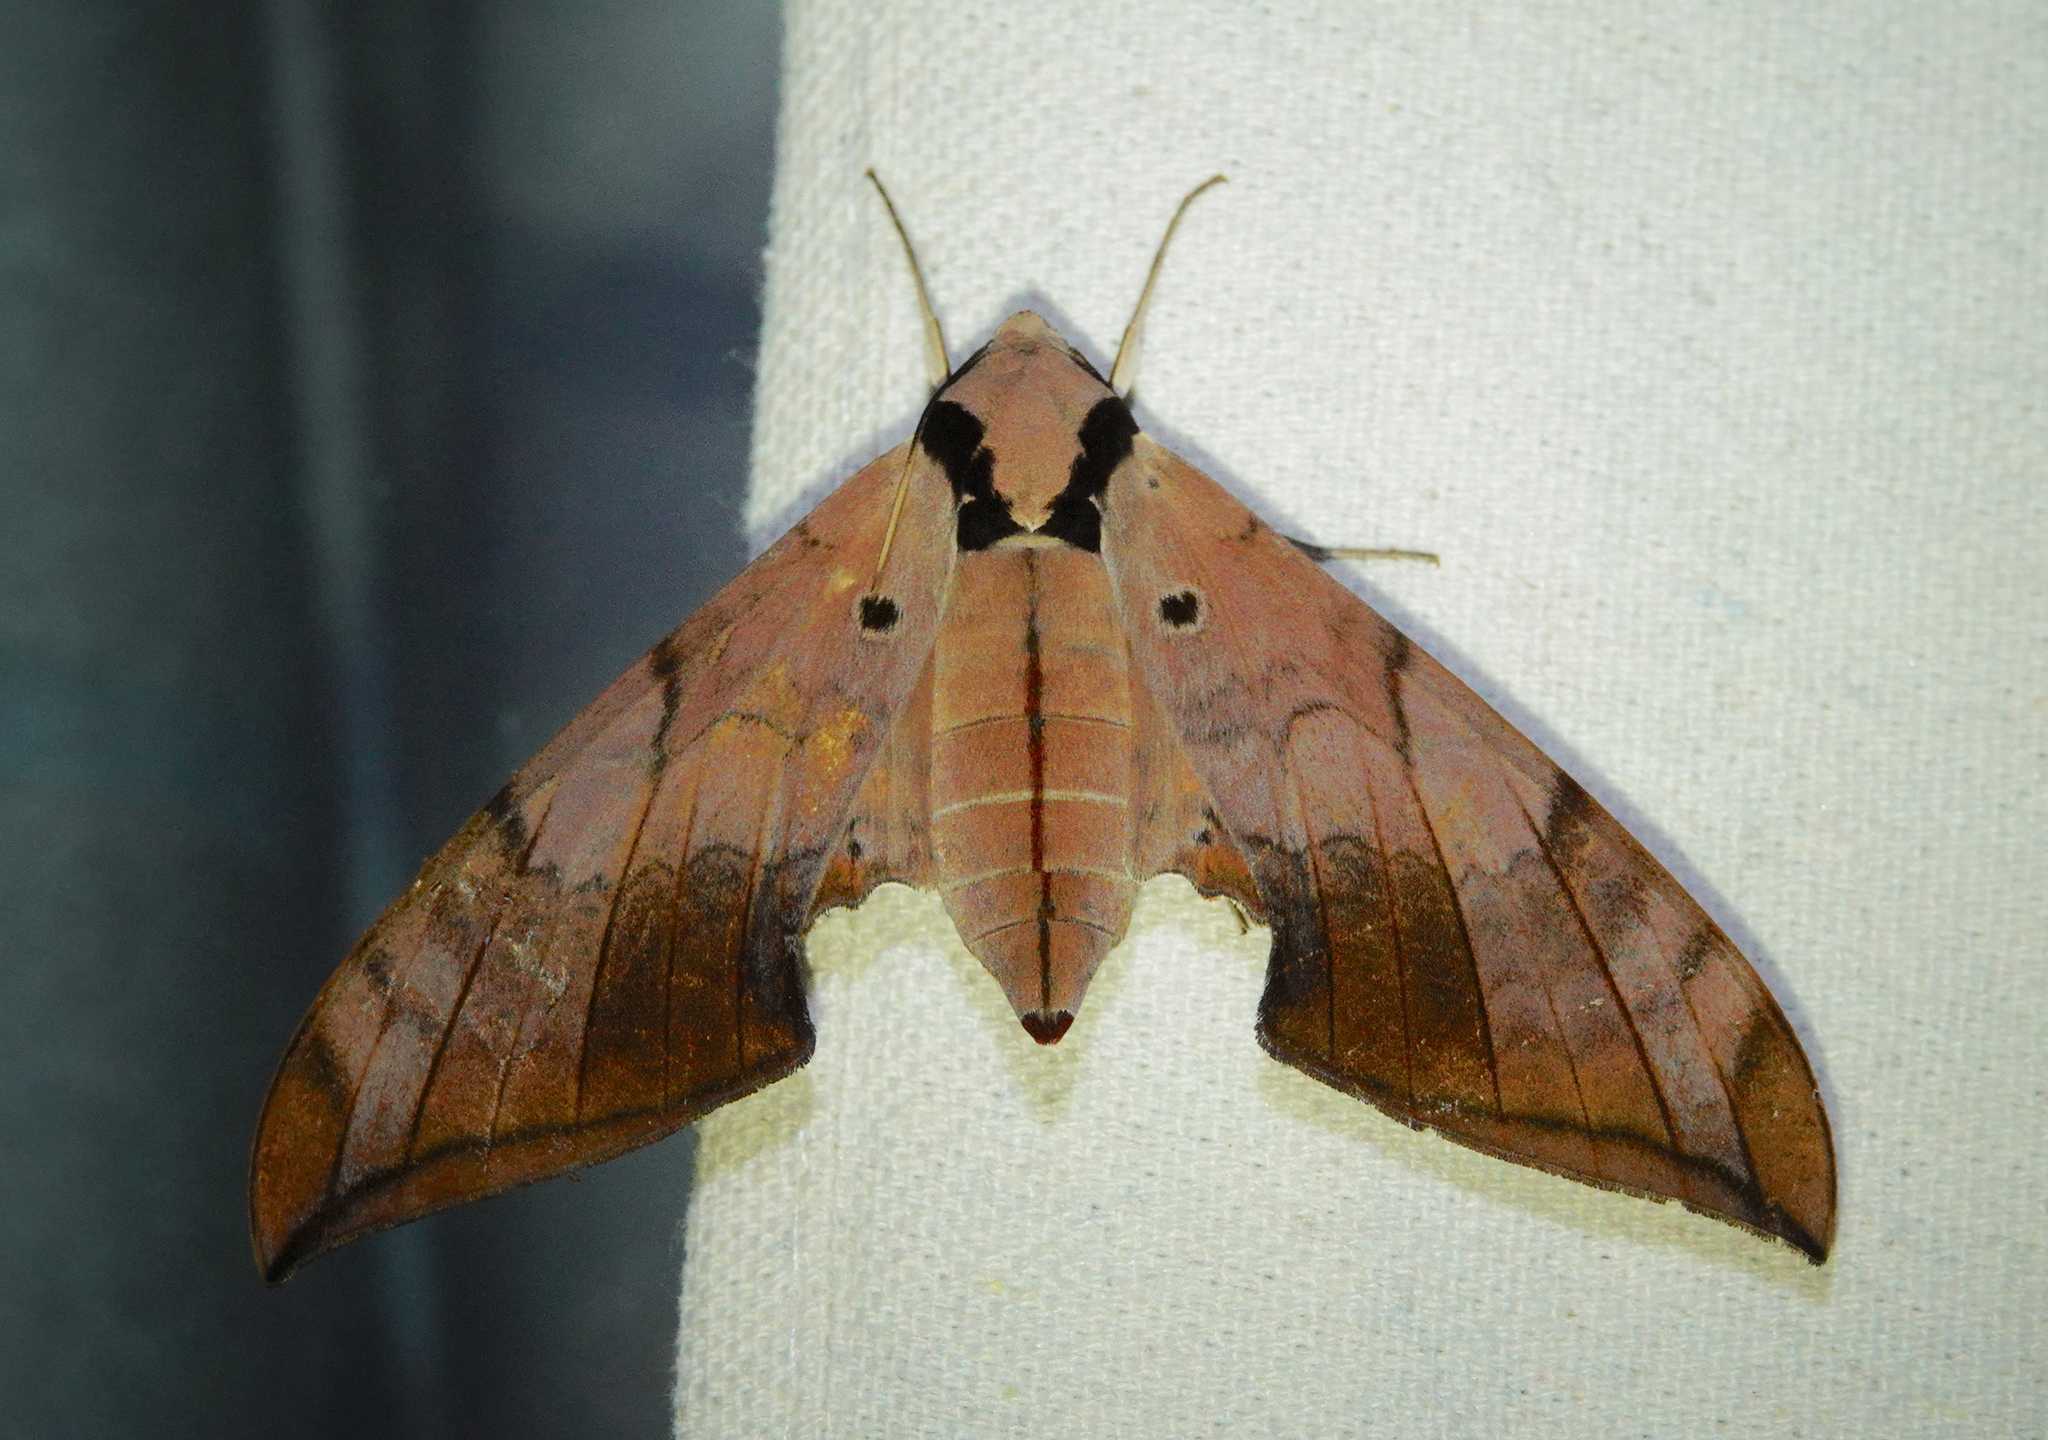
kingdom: Animalia
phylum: Arthropoda
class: Insecta
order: Lepidoptera
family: Sphingidae
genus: Ambulyx
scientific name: Ambulyx substrigilis
